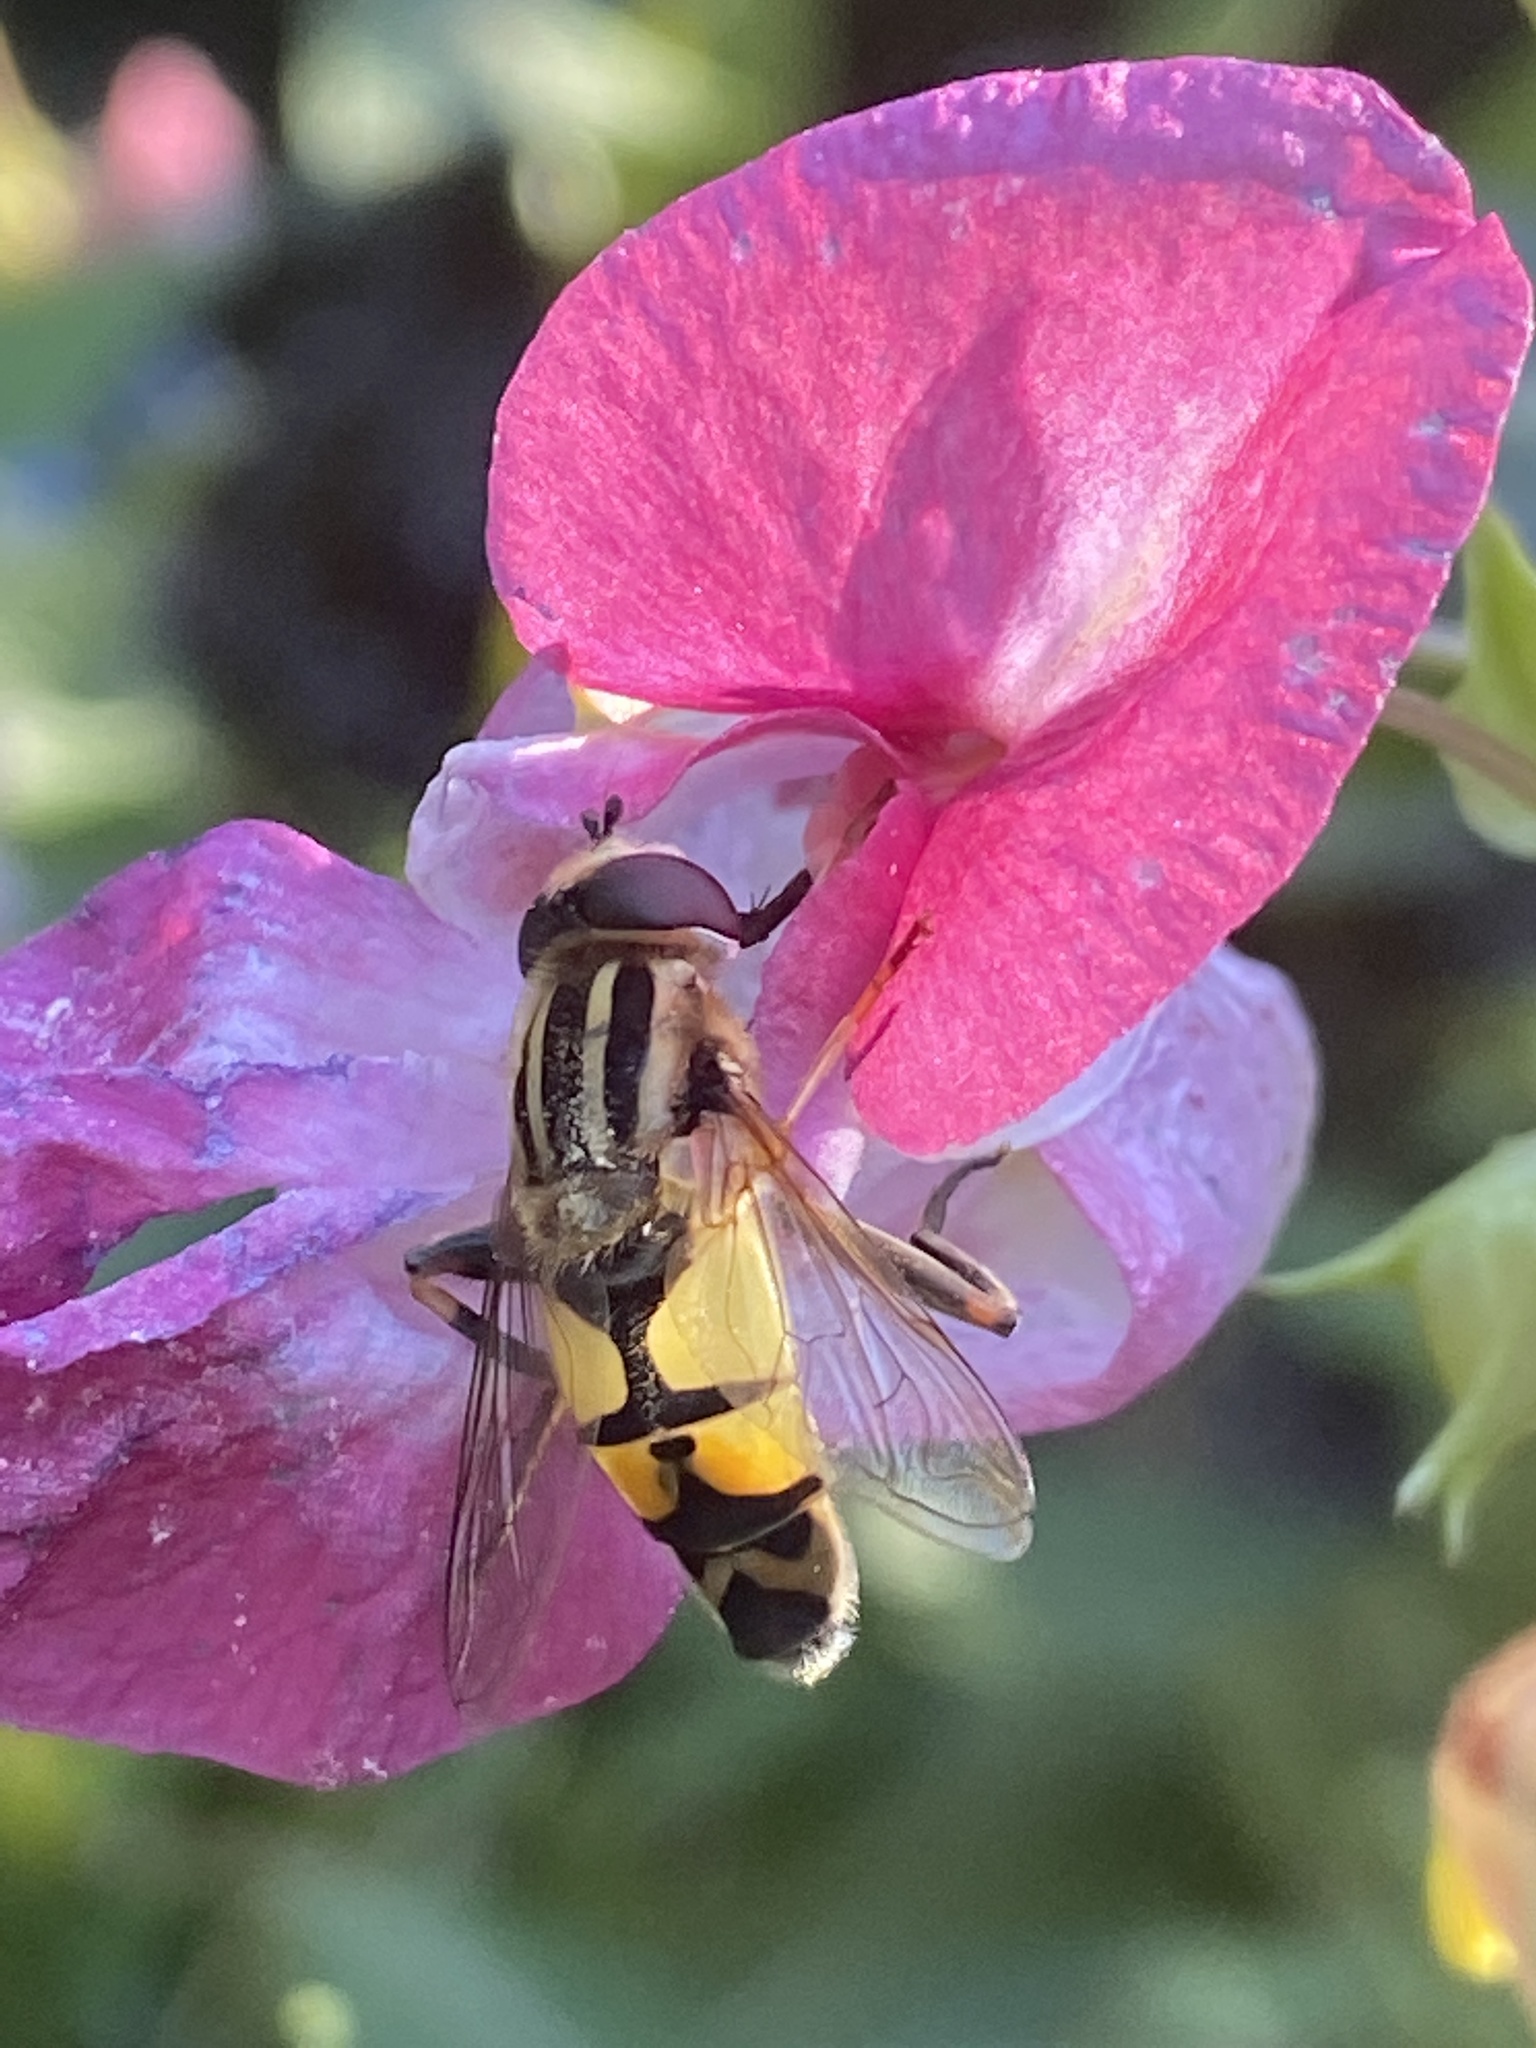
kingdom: Animalia
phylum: Arthropoda
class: Insecta
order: Diptera
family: Syrphidae
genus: Helophilus
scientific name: Helophilus trivittatus
